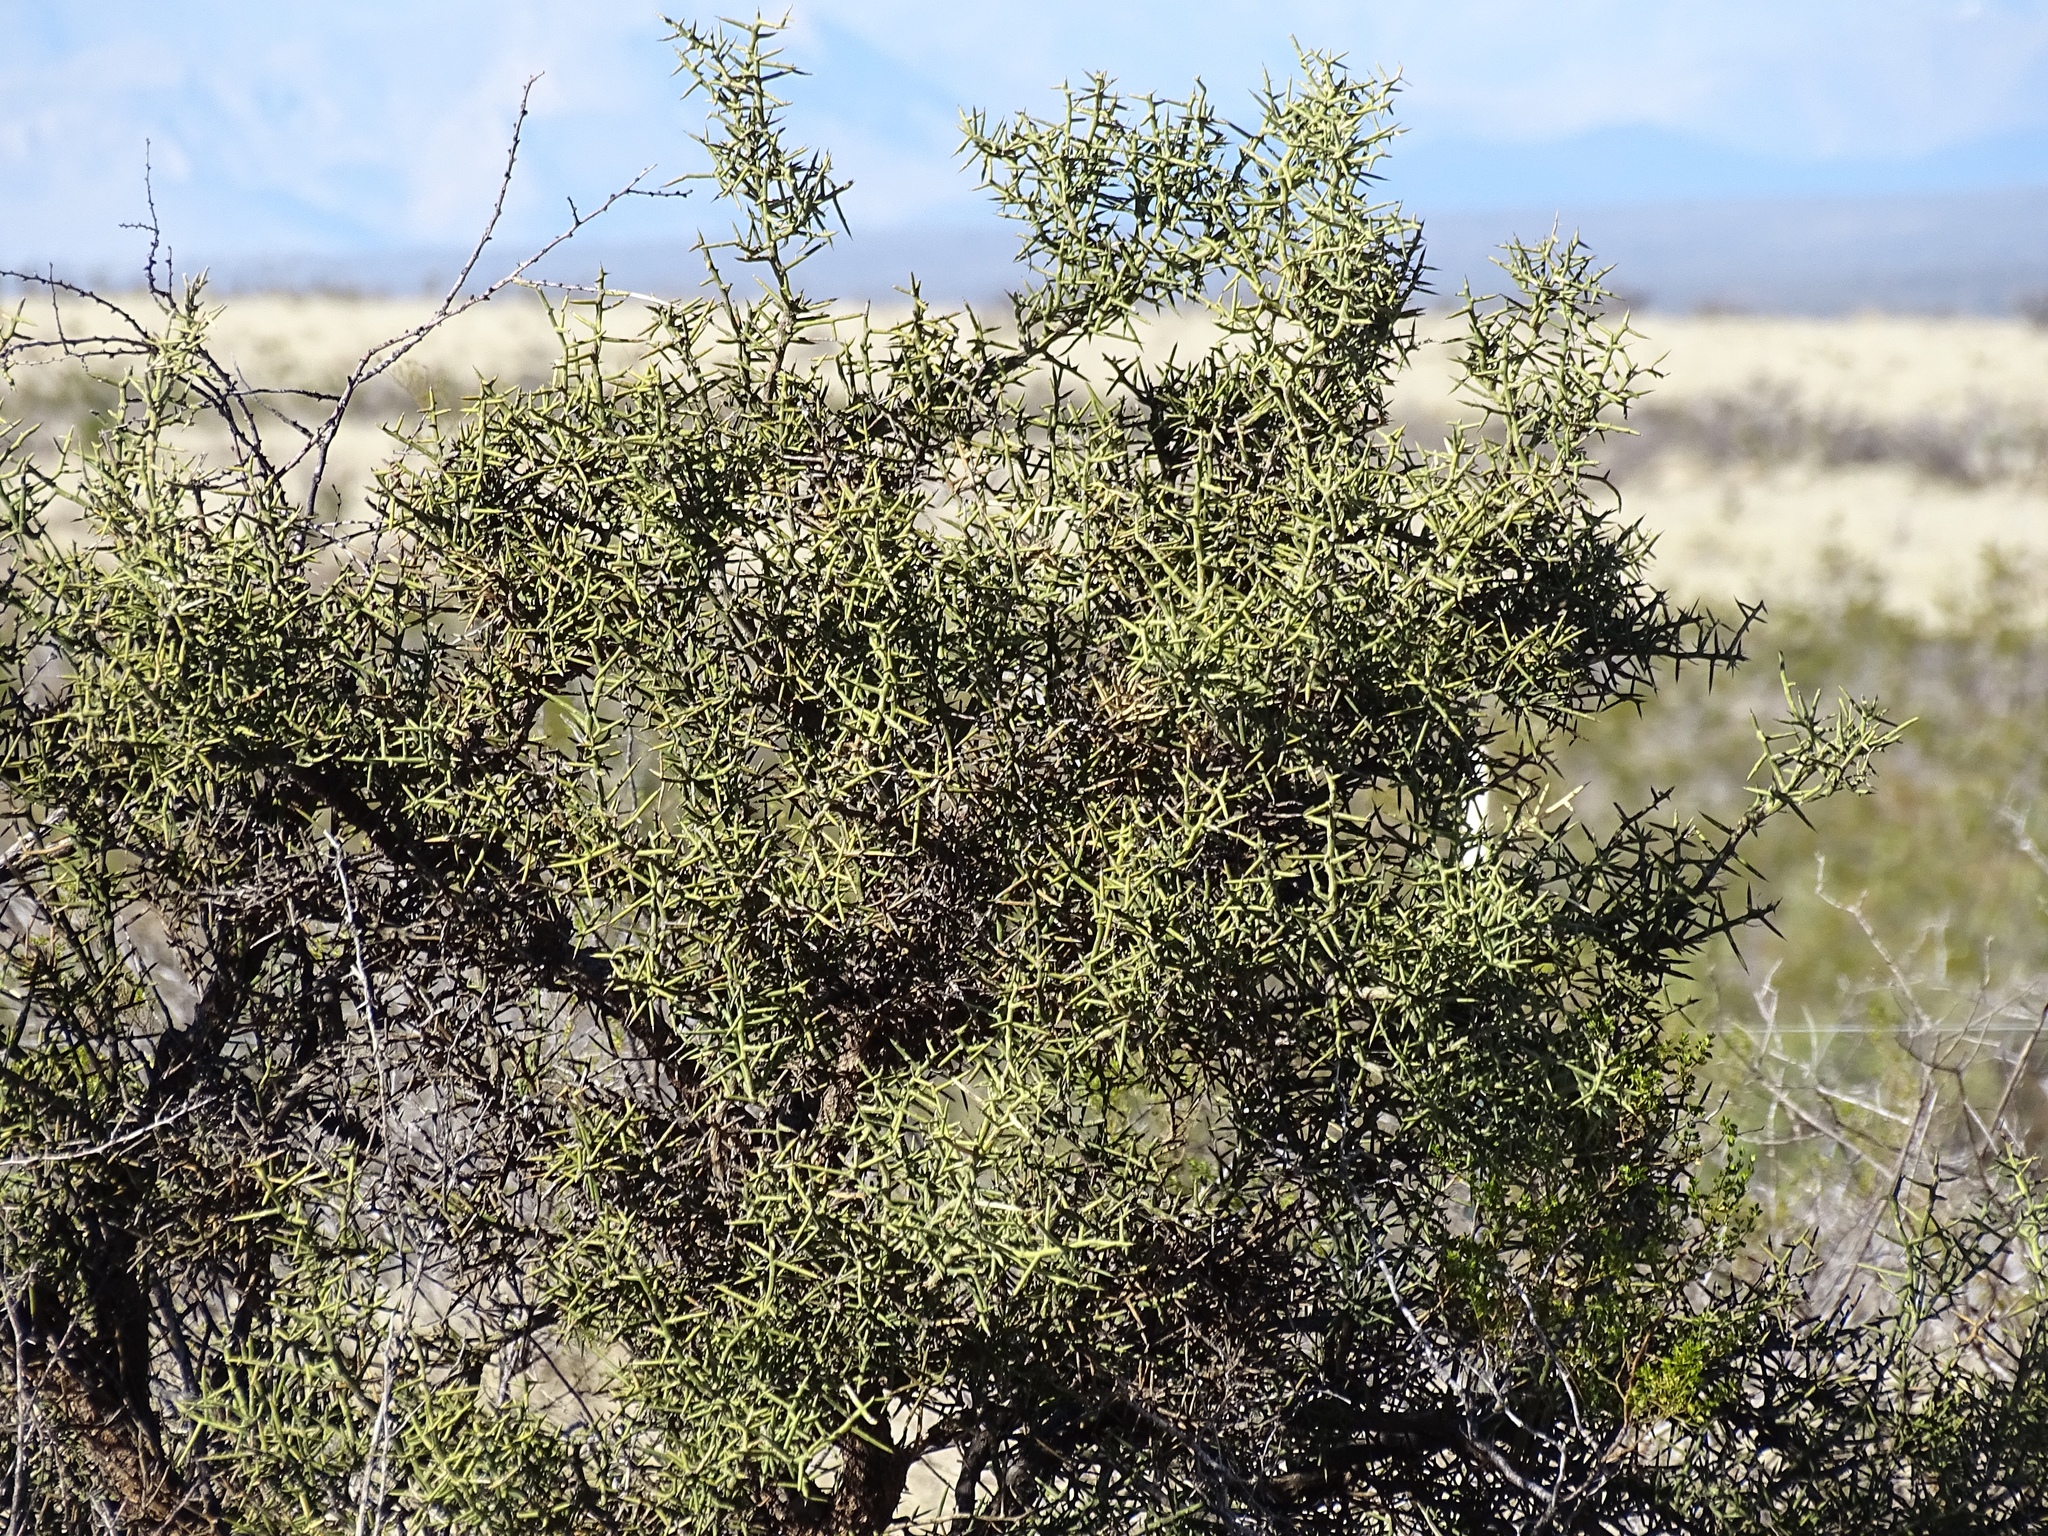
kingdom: Plantae
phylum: Tracheophyta
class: Magnoliopsida
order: Brassicales
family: Koeberliniaceae
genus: Koeberlinia
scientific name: Koeberlinia spinosa
